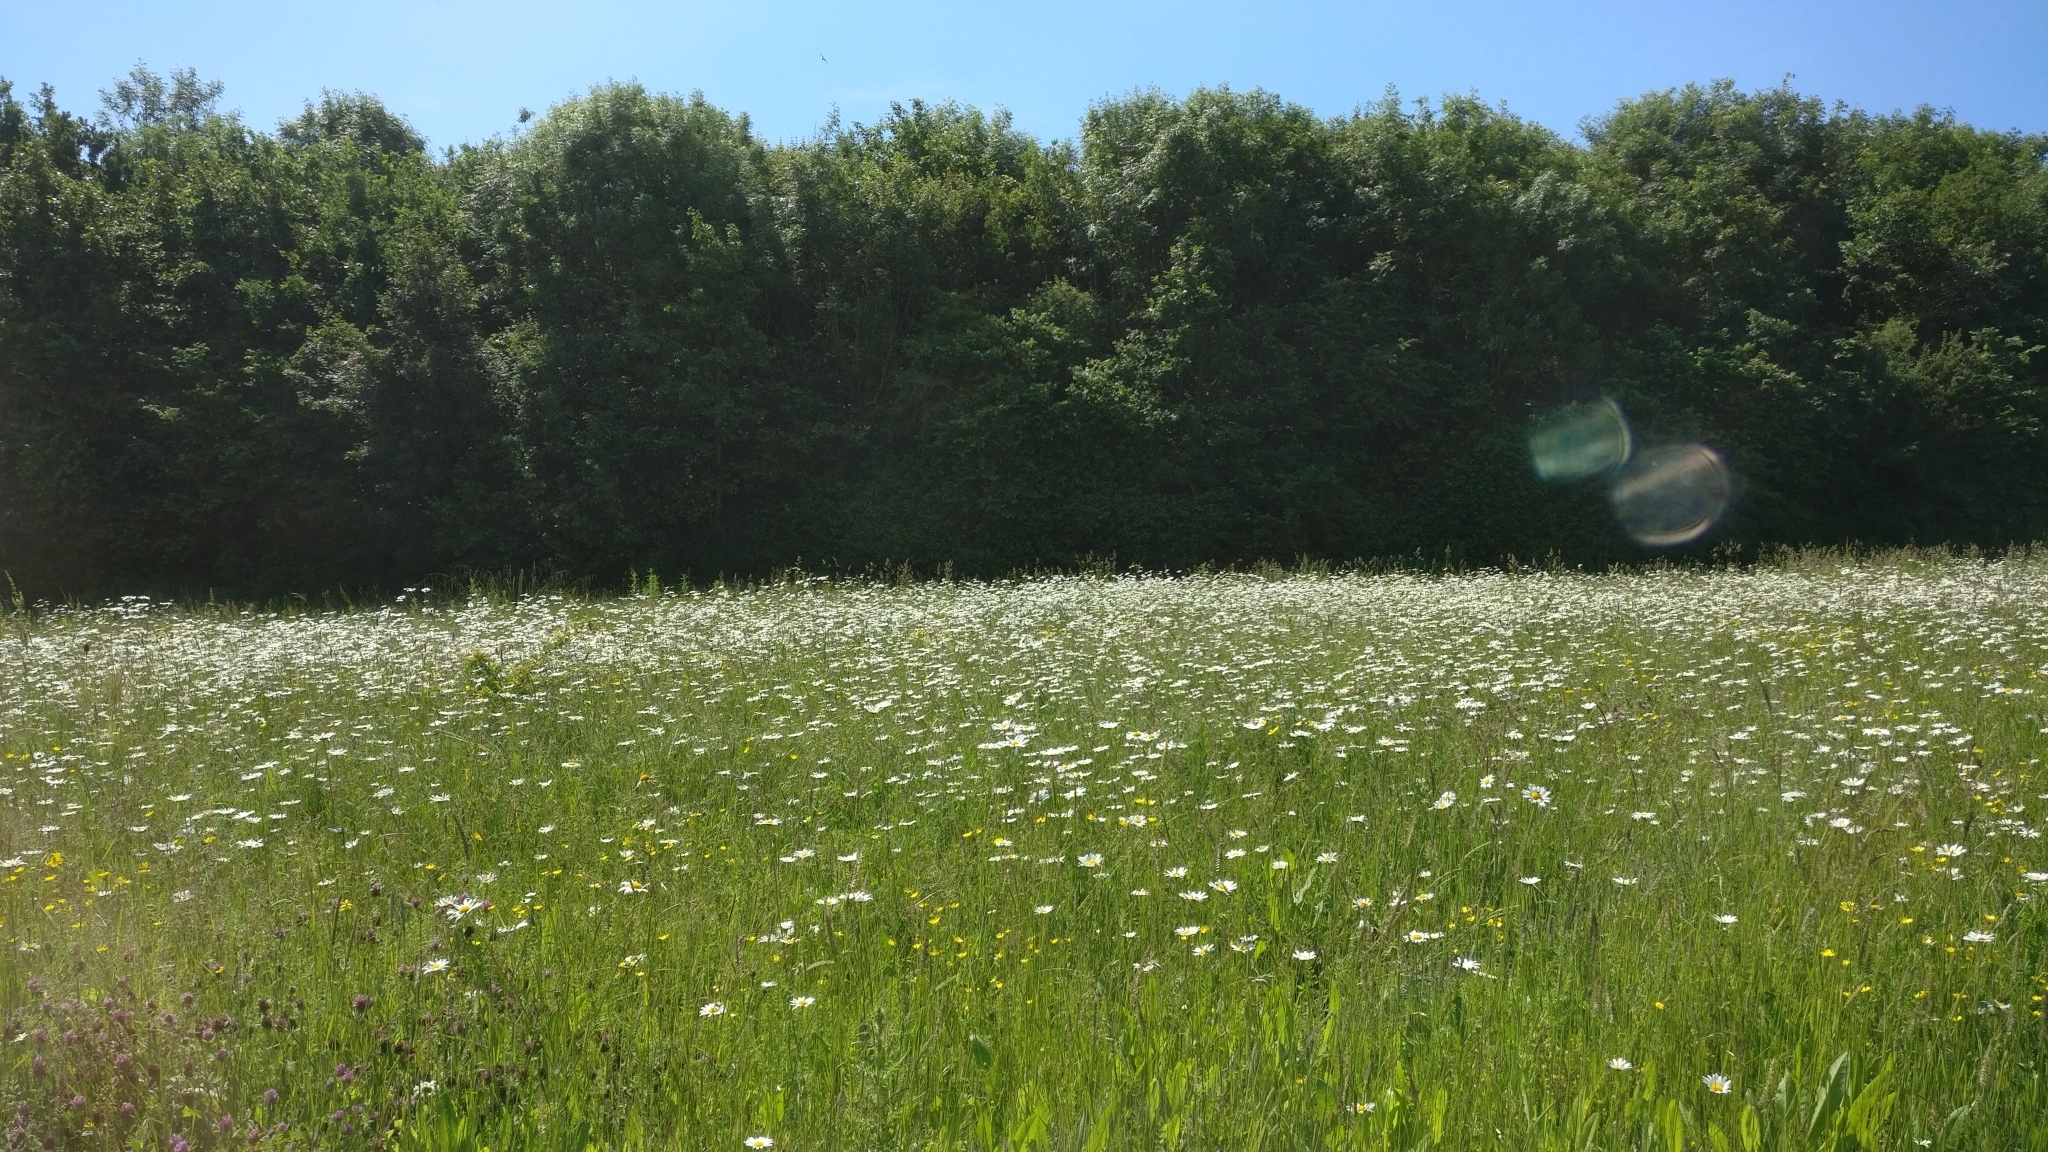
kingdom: Plantae
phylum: Tracheophyta
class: Magnoliopsida
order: Asterales
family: Asteraceae
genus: Leucanthemum
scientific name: Leucanthemum vulgare
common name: Oxeye daisy
